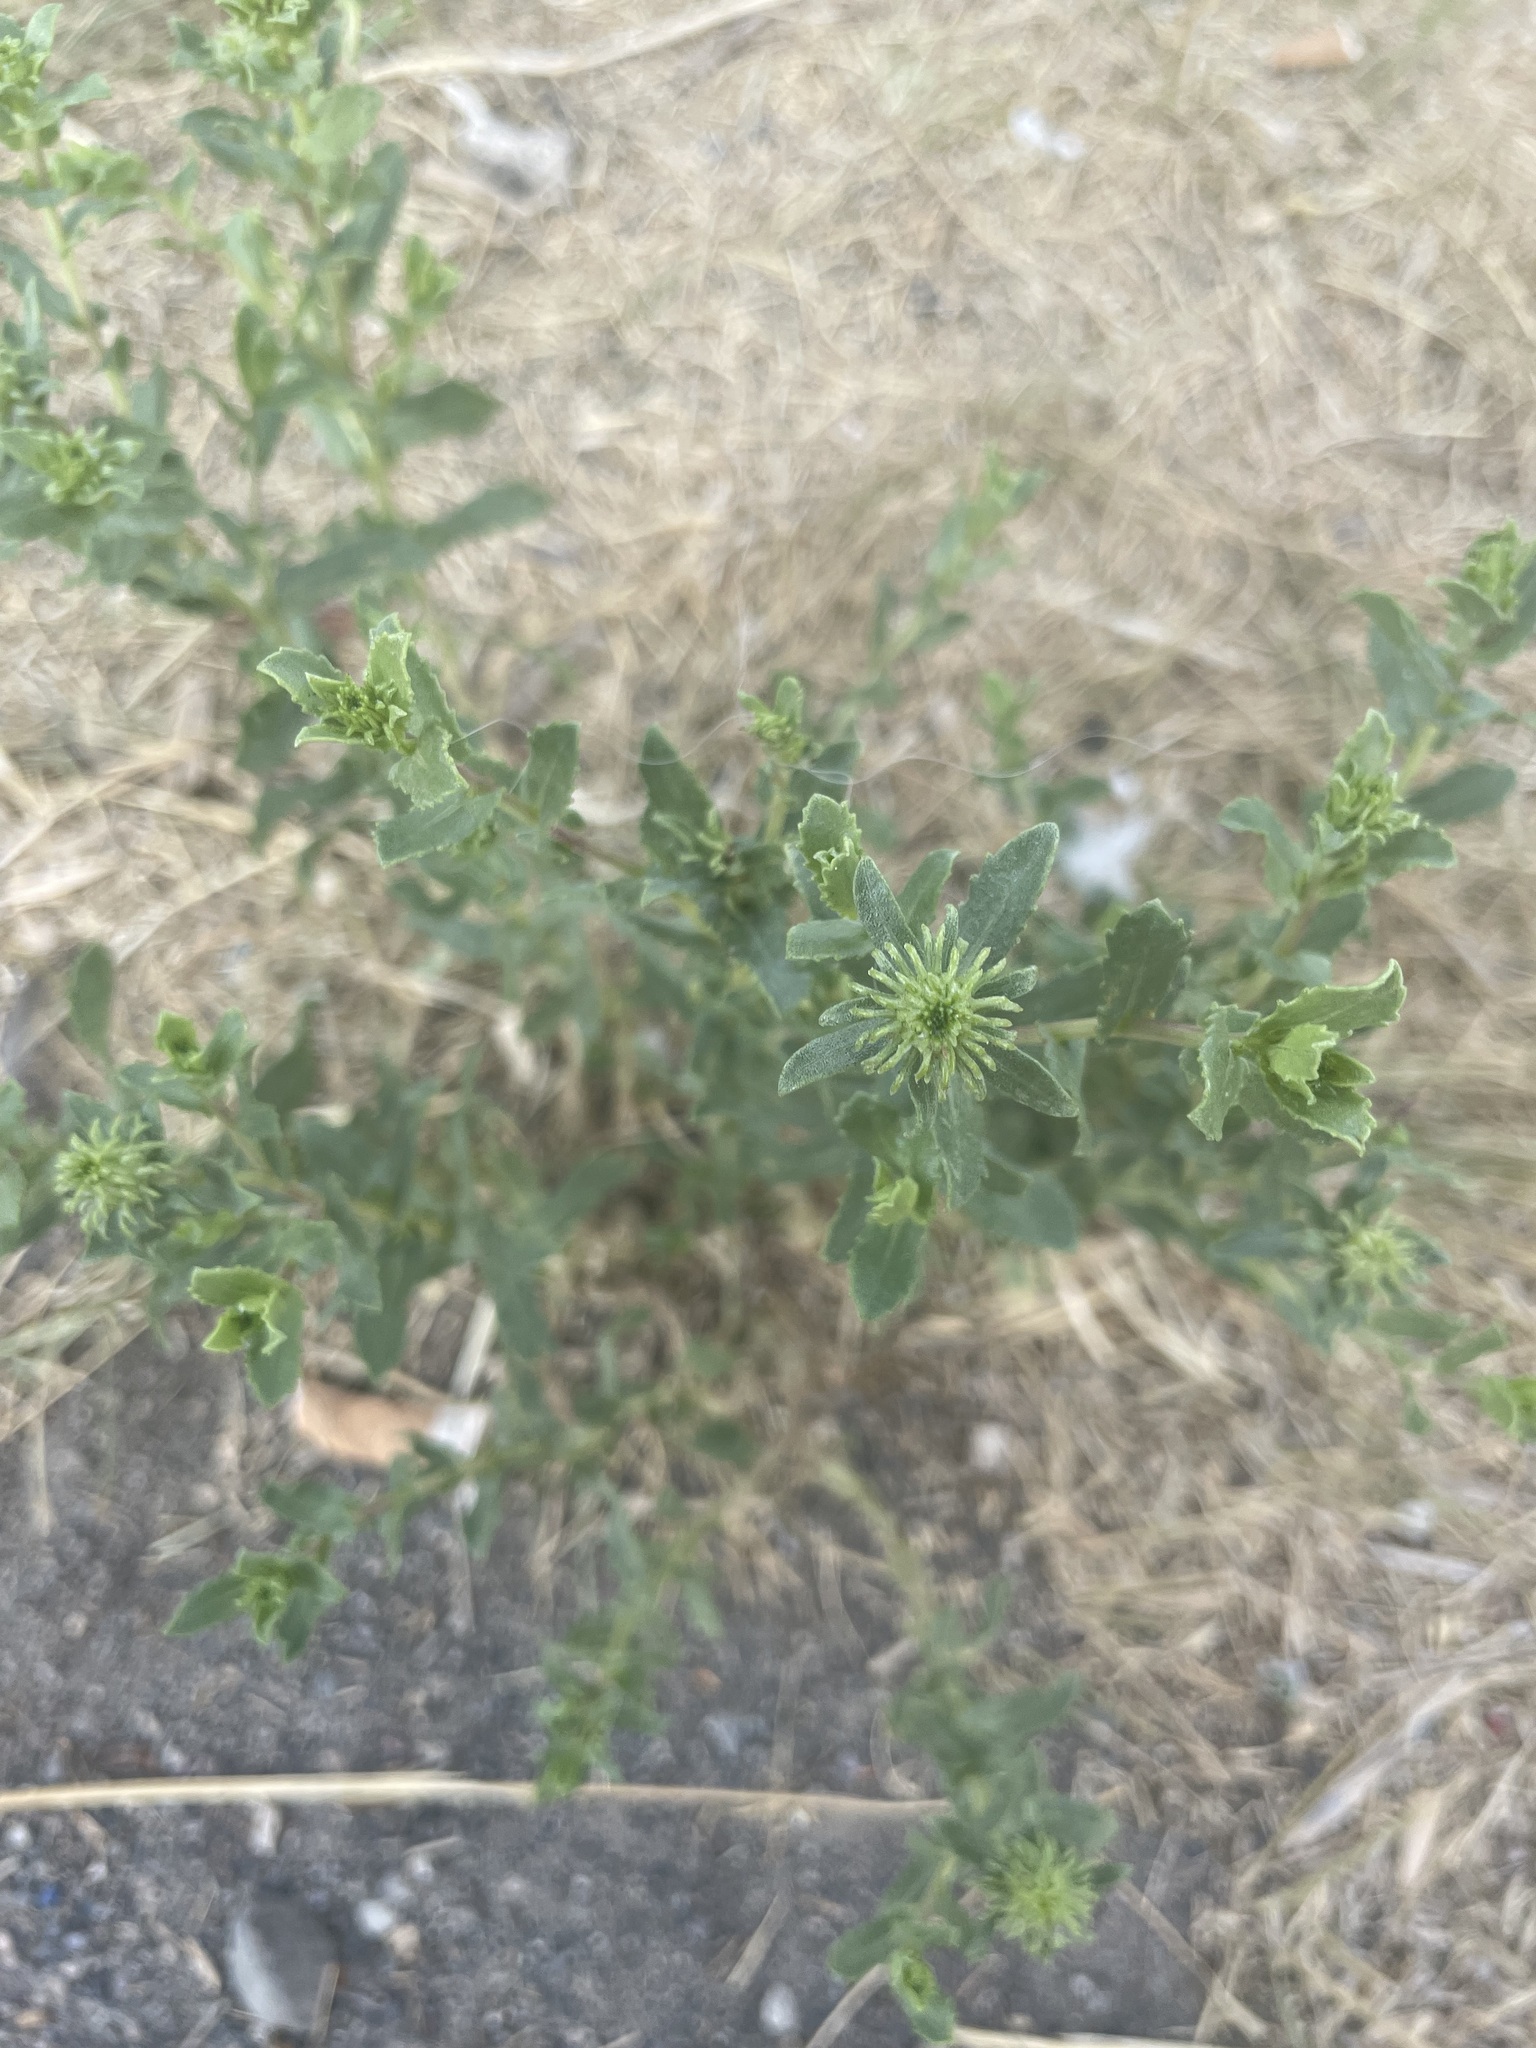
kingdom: Plantae
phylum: Tracheophyta
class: Magnoliopsida
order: Asterales
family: Asteraceae
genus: Grindelia
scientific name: Grindelia squarrosa
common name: Curly-cup gumweed
